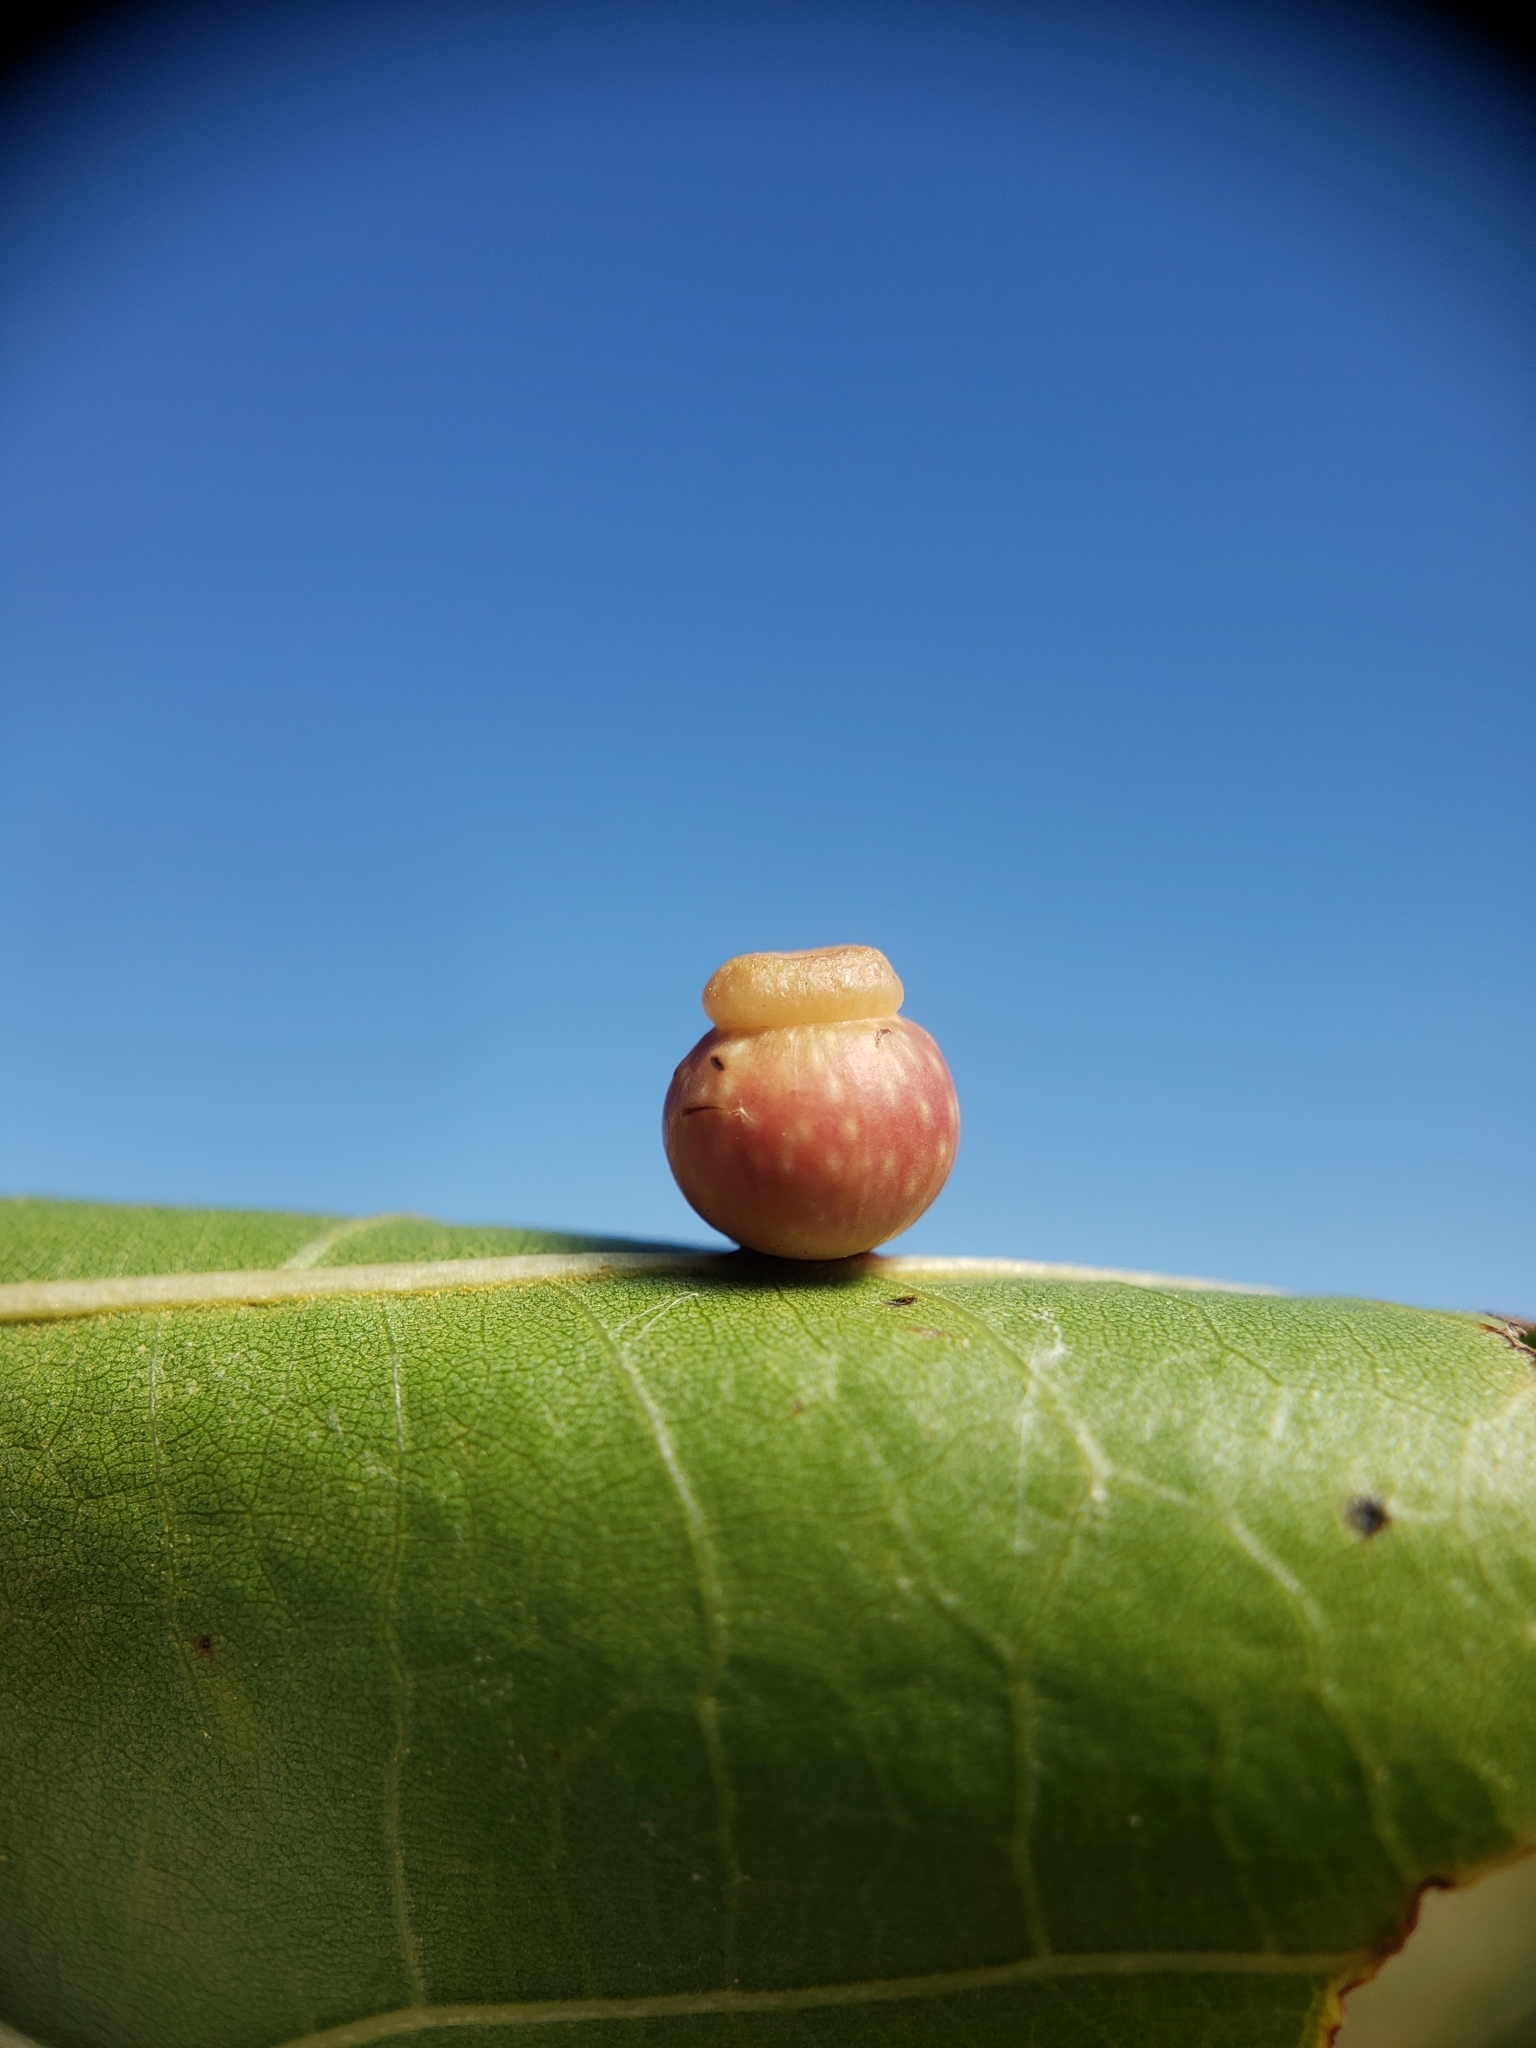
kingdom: Animalia
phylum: Arthropoda
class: Insecta
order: Hymenoptera
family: Cynipidae
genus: Kokkocynips
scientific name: Kokkocynips rileyi
